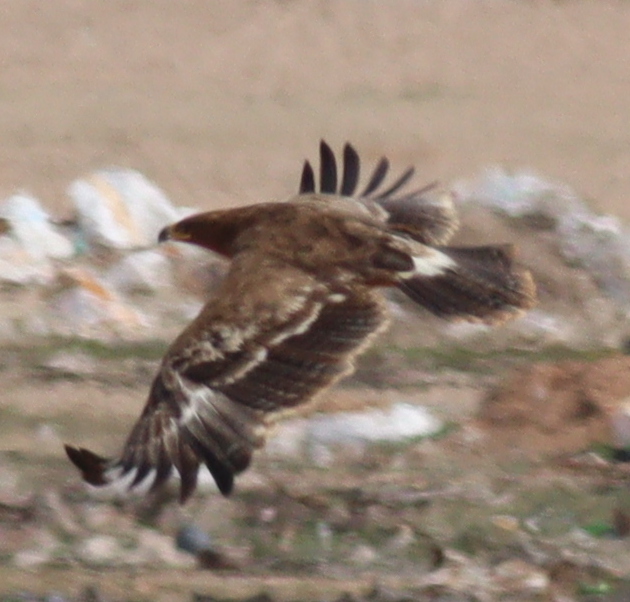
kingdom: Animalia
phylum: Chordata
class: Aves
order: Accipitriformes
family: Accipitridae
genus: Aquila
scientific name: Aquila nipalensis
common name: Steppe eagle
